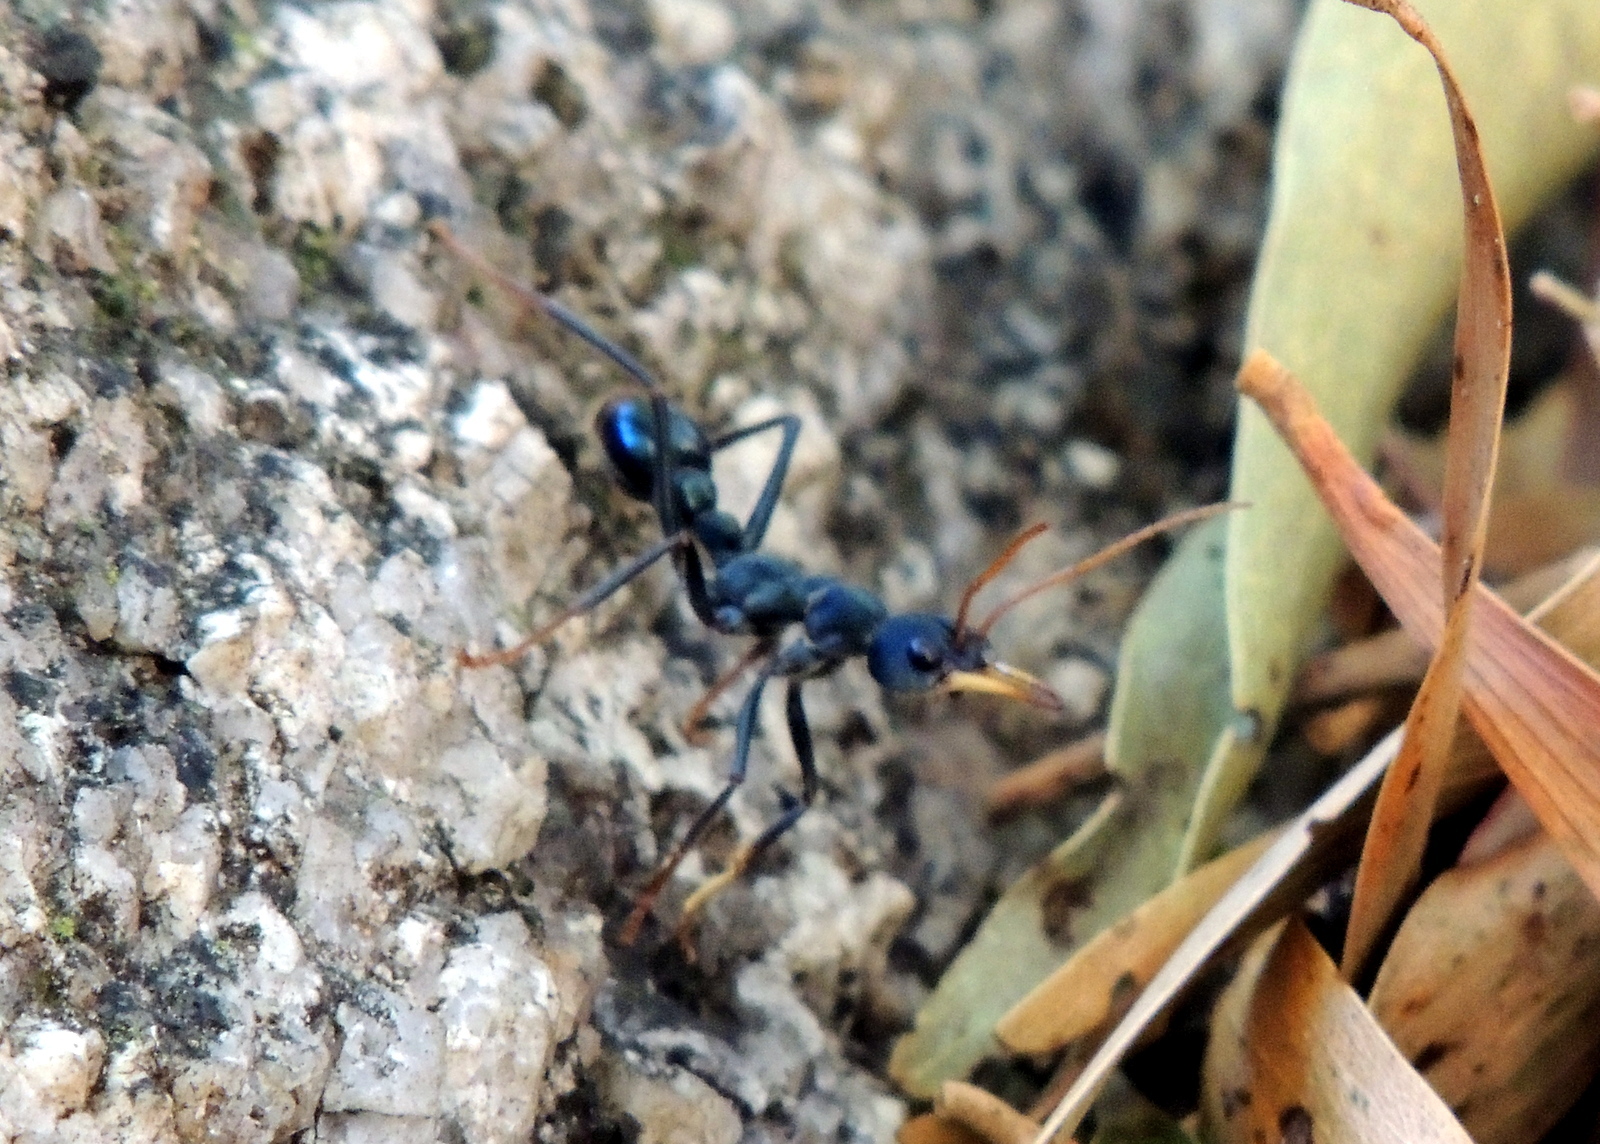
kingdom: Animalia
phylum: Arthropoda
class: Insecta
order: Hymenoptera
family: Formicidae
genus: Myrmecia
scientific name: Myrmecia tarsata
